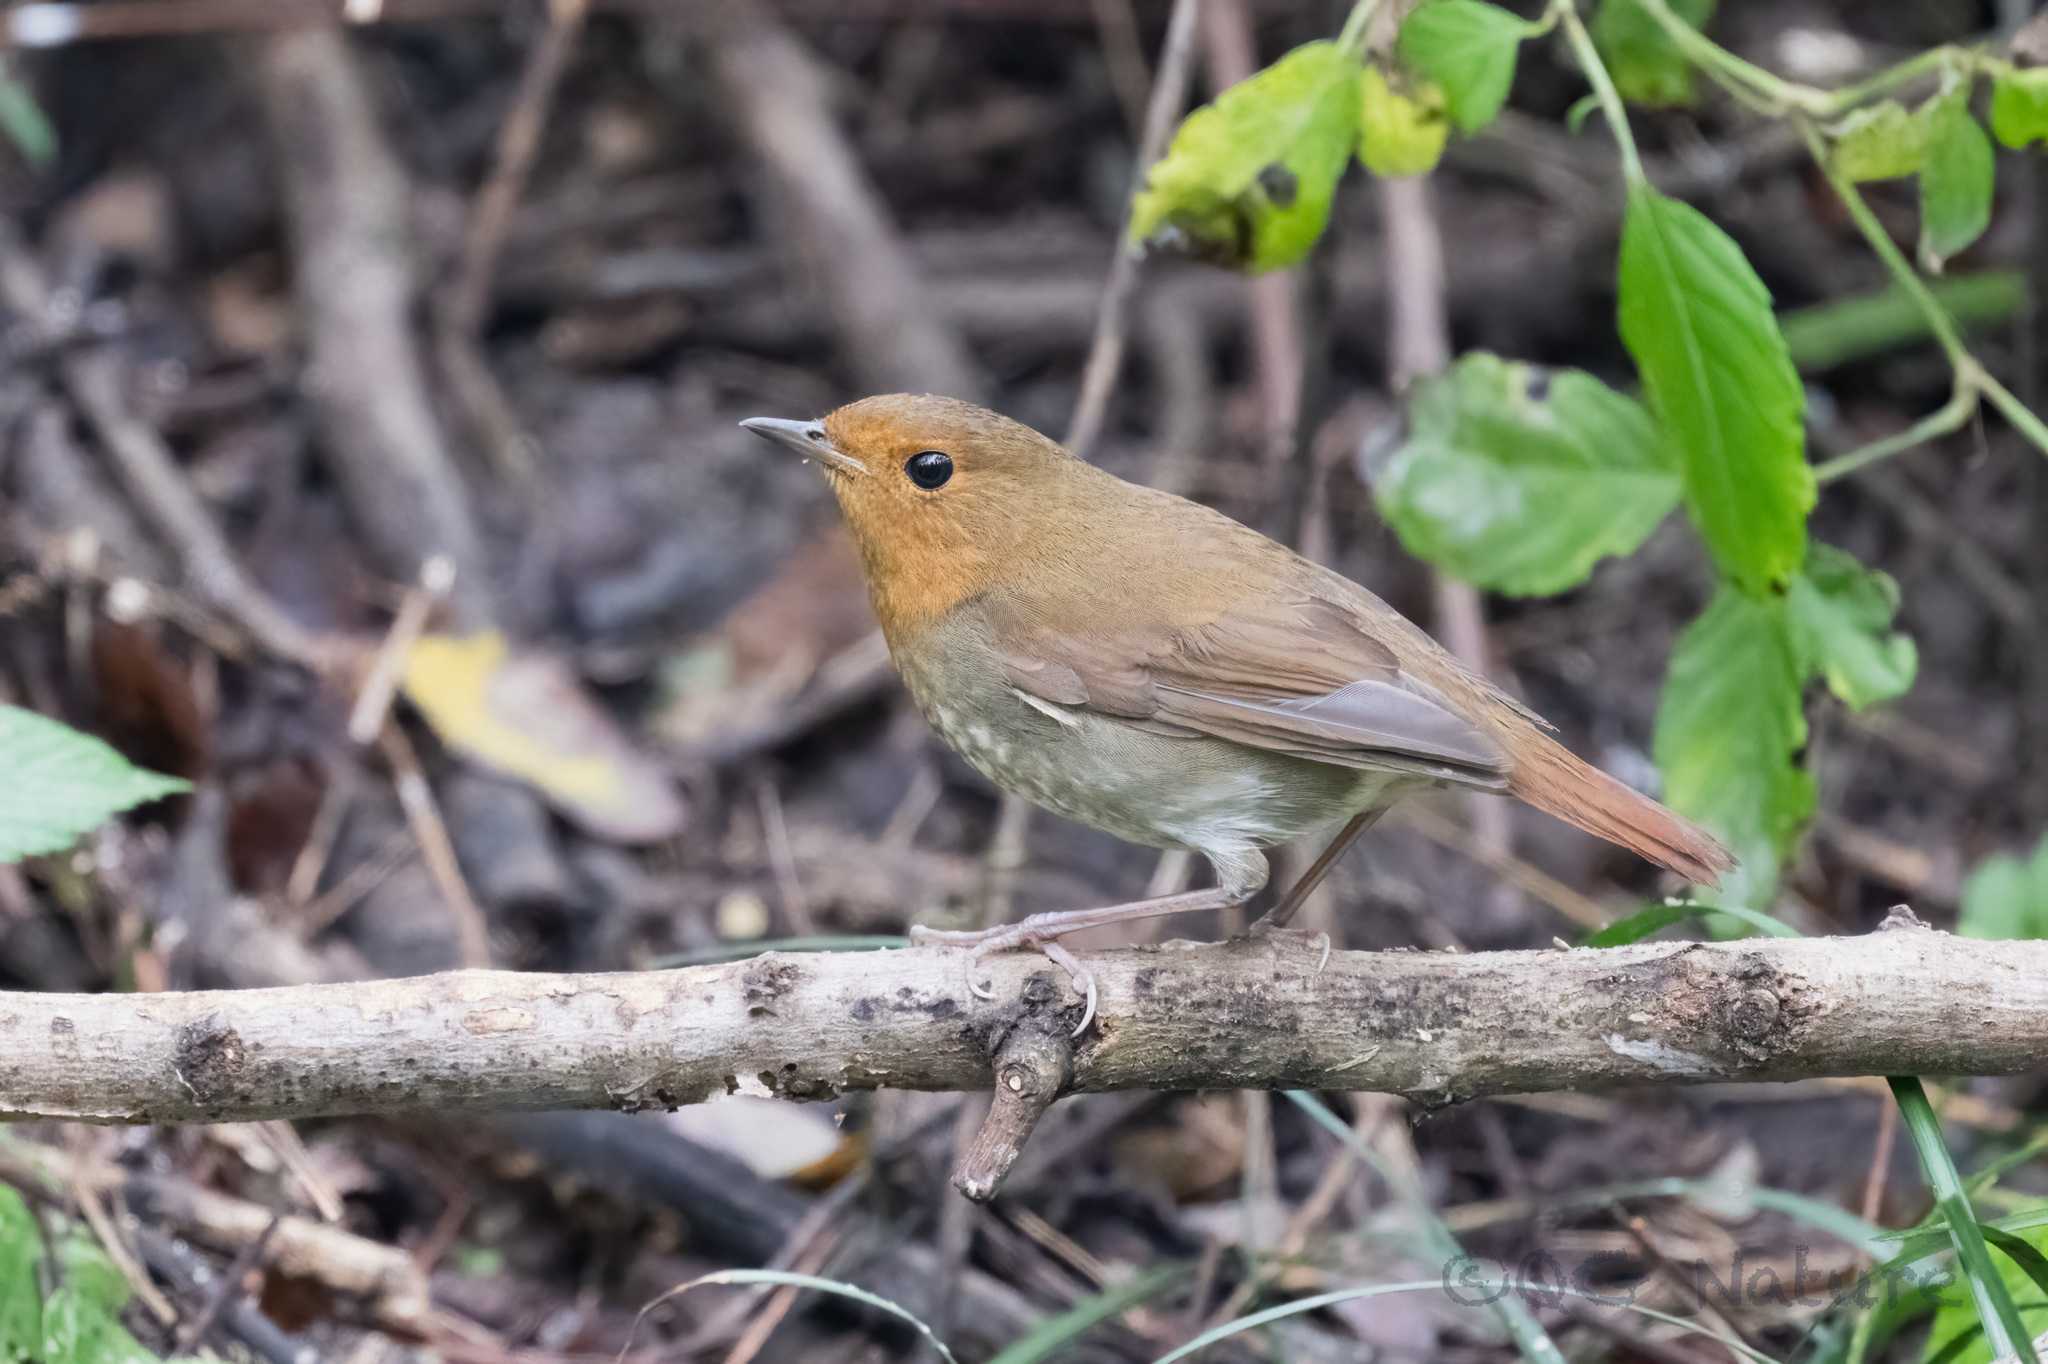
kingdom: Animalia
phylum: Chordata
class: Aves
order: Passeriformes
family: Muscicapidae
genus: Erithacus
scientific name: Erithacus akahige
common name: Japanese robin
